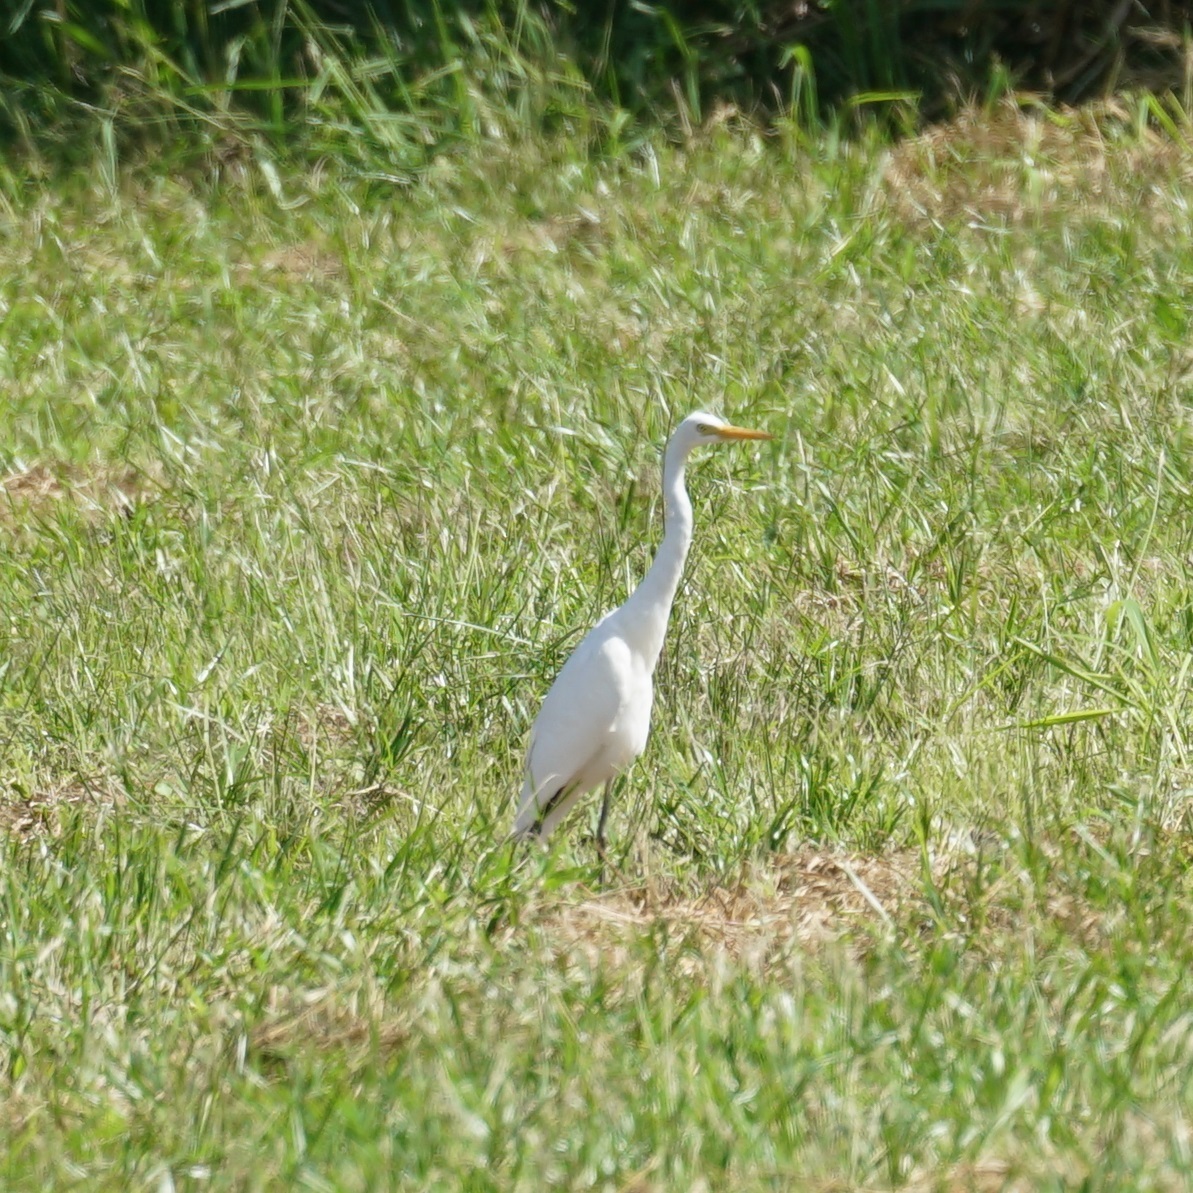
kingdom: Animalia
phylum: Chordata
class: Aves
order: Pelecaniformes
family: Ardeidae
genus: Egretta
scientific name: Egretta intermedia
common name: Intermediate egret
